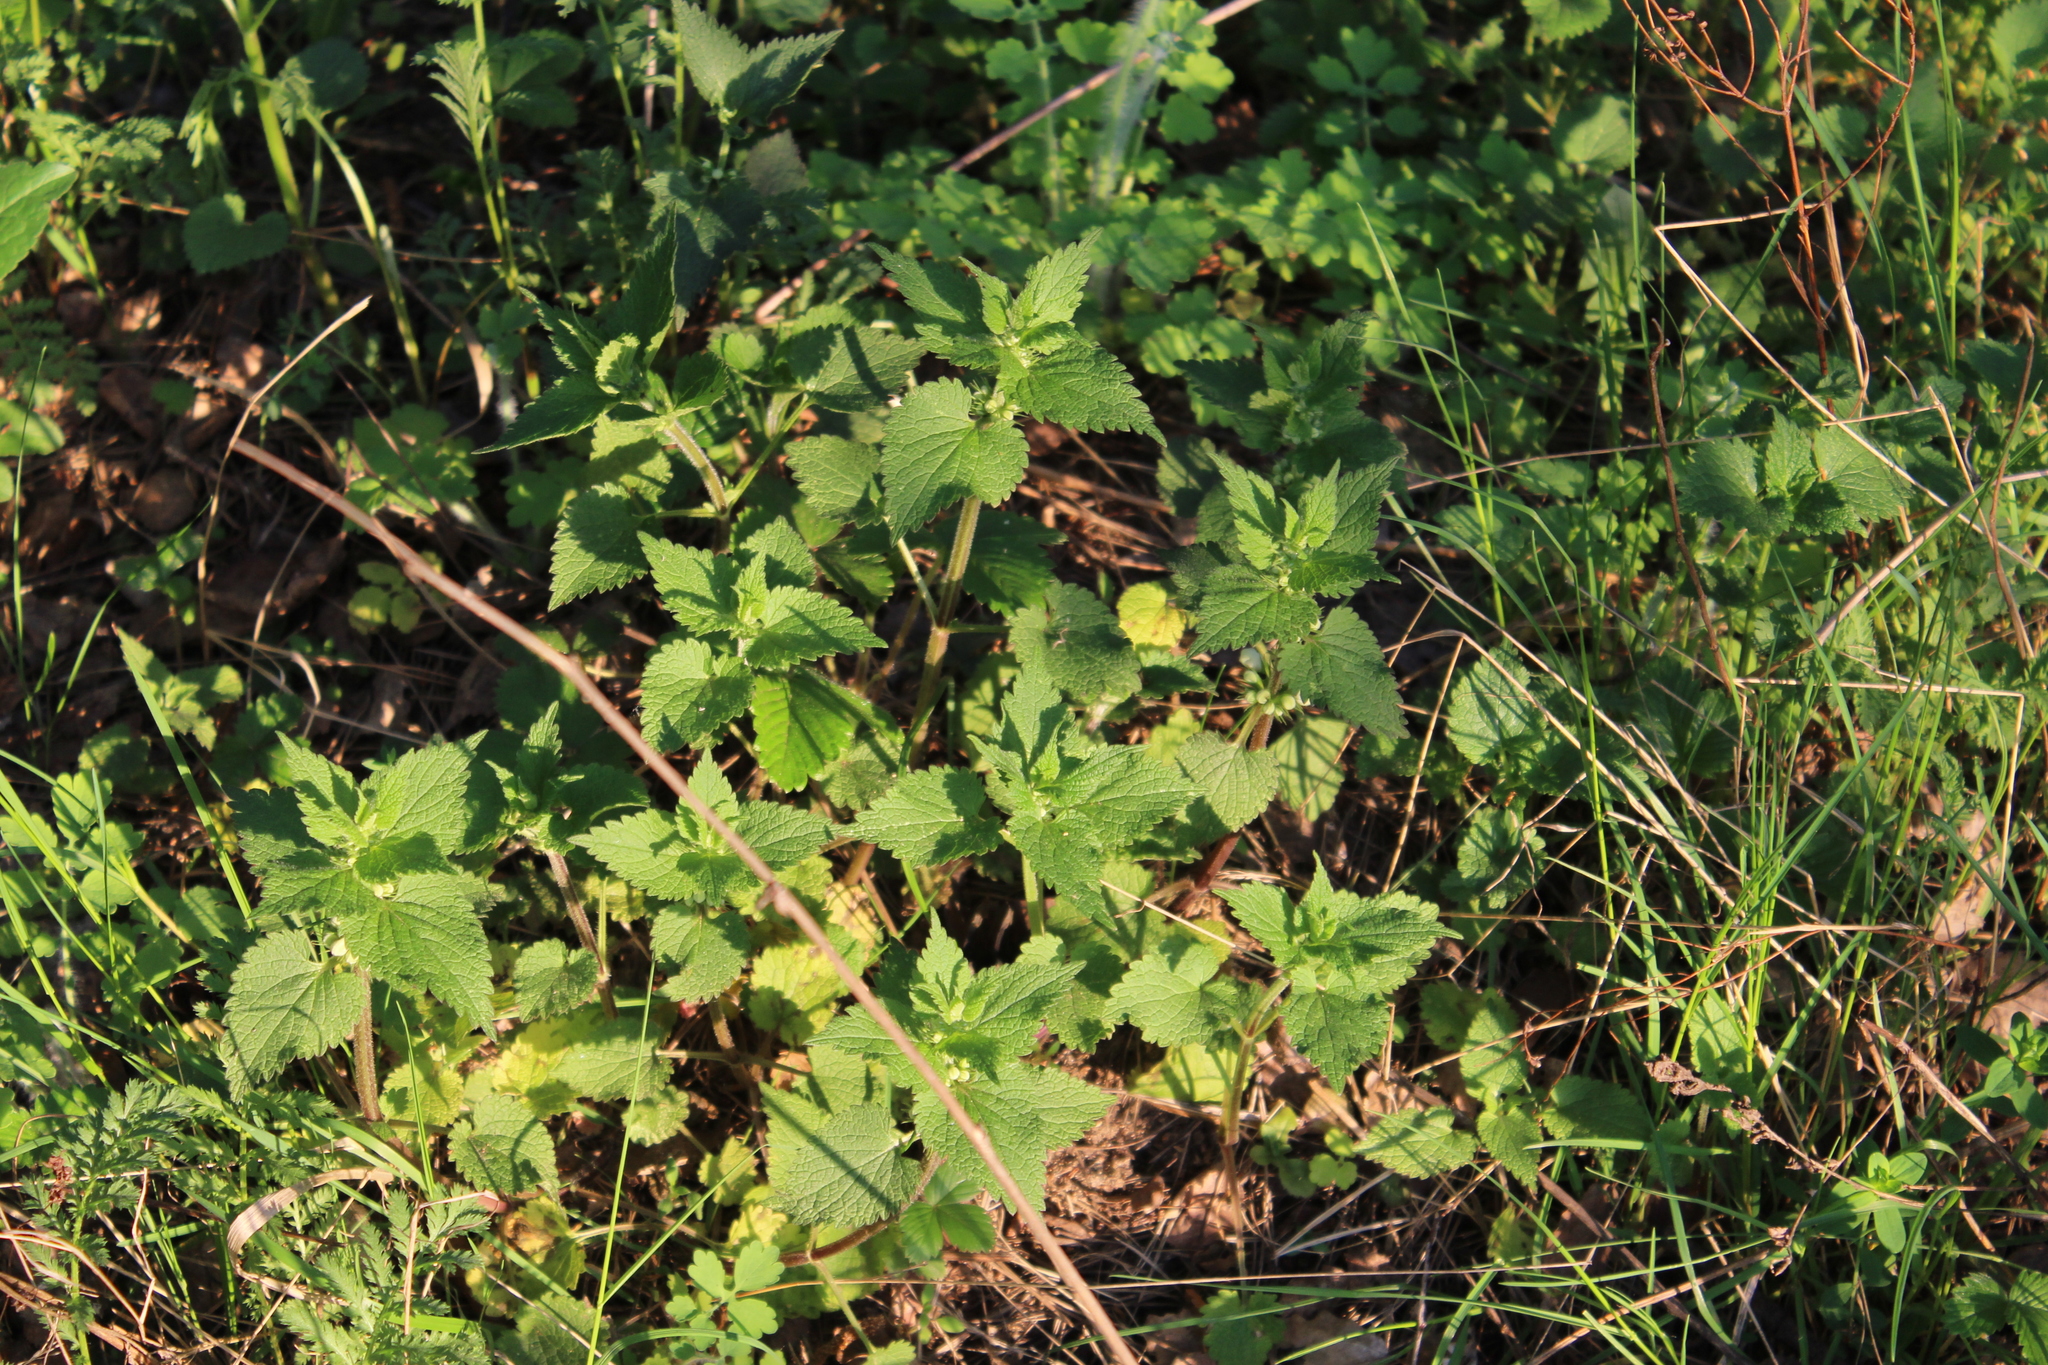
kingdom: Plantae
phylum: Tracheophyta
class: Magnoliopsida
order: Lamiales
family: Lamiaceae
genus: Lamium
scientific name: Lamium album
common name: White dead-nettle
